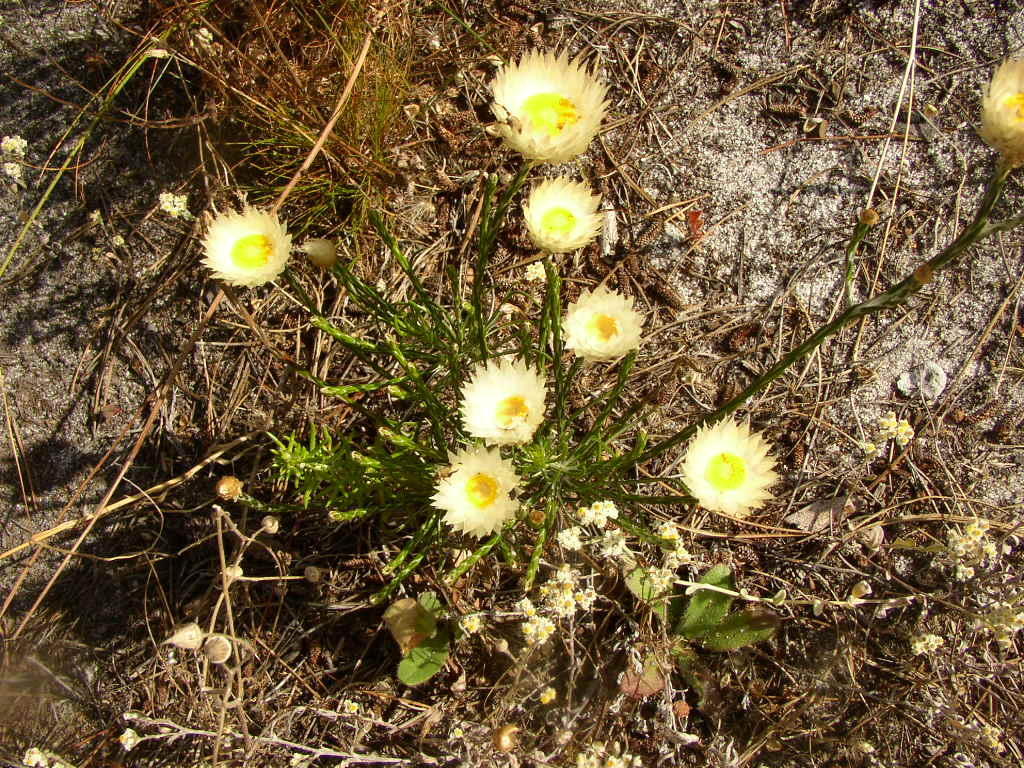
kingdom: Plantae
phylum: Tracheophyta
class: Magnoliopsida
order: Asterales
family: Asteraceae
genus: Edmondia
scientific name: Edmondia sesamoides
